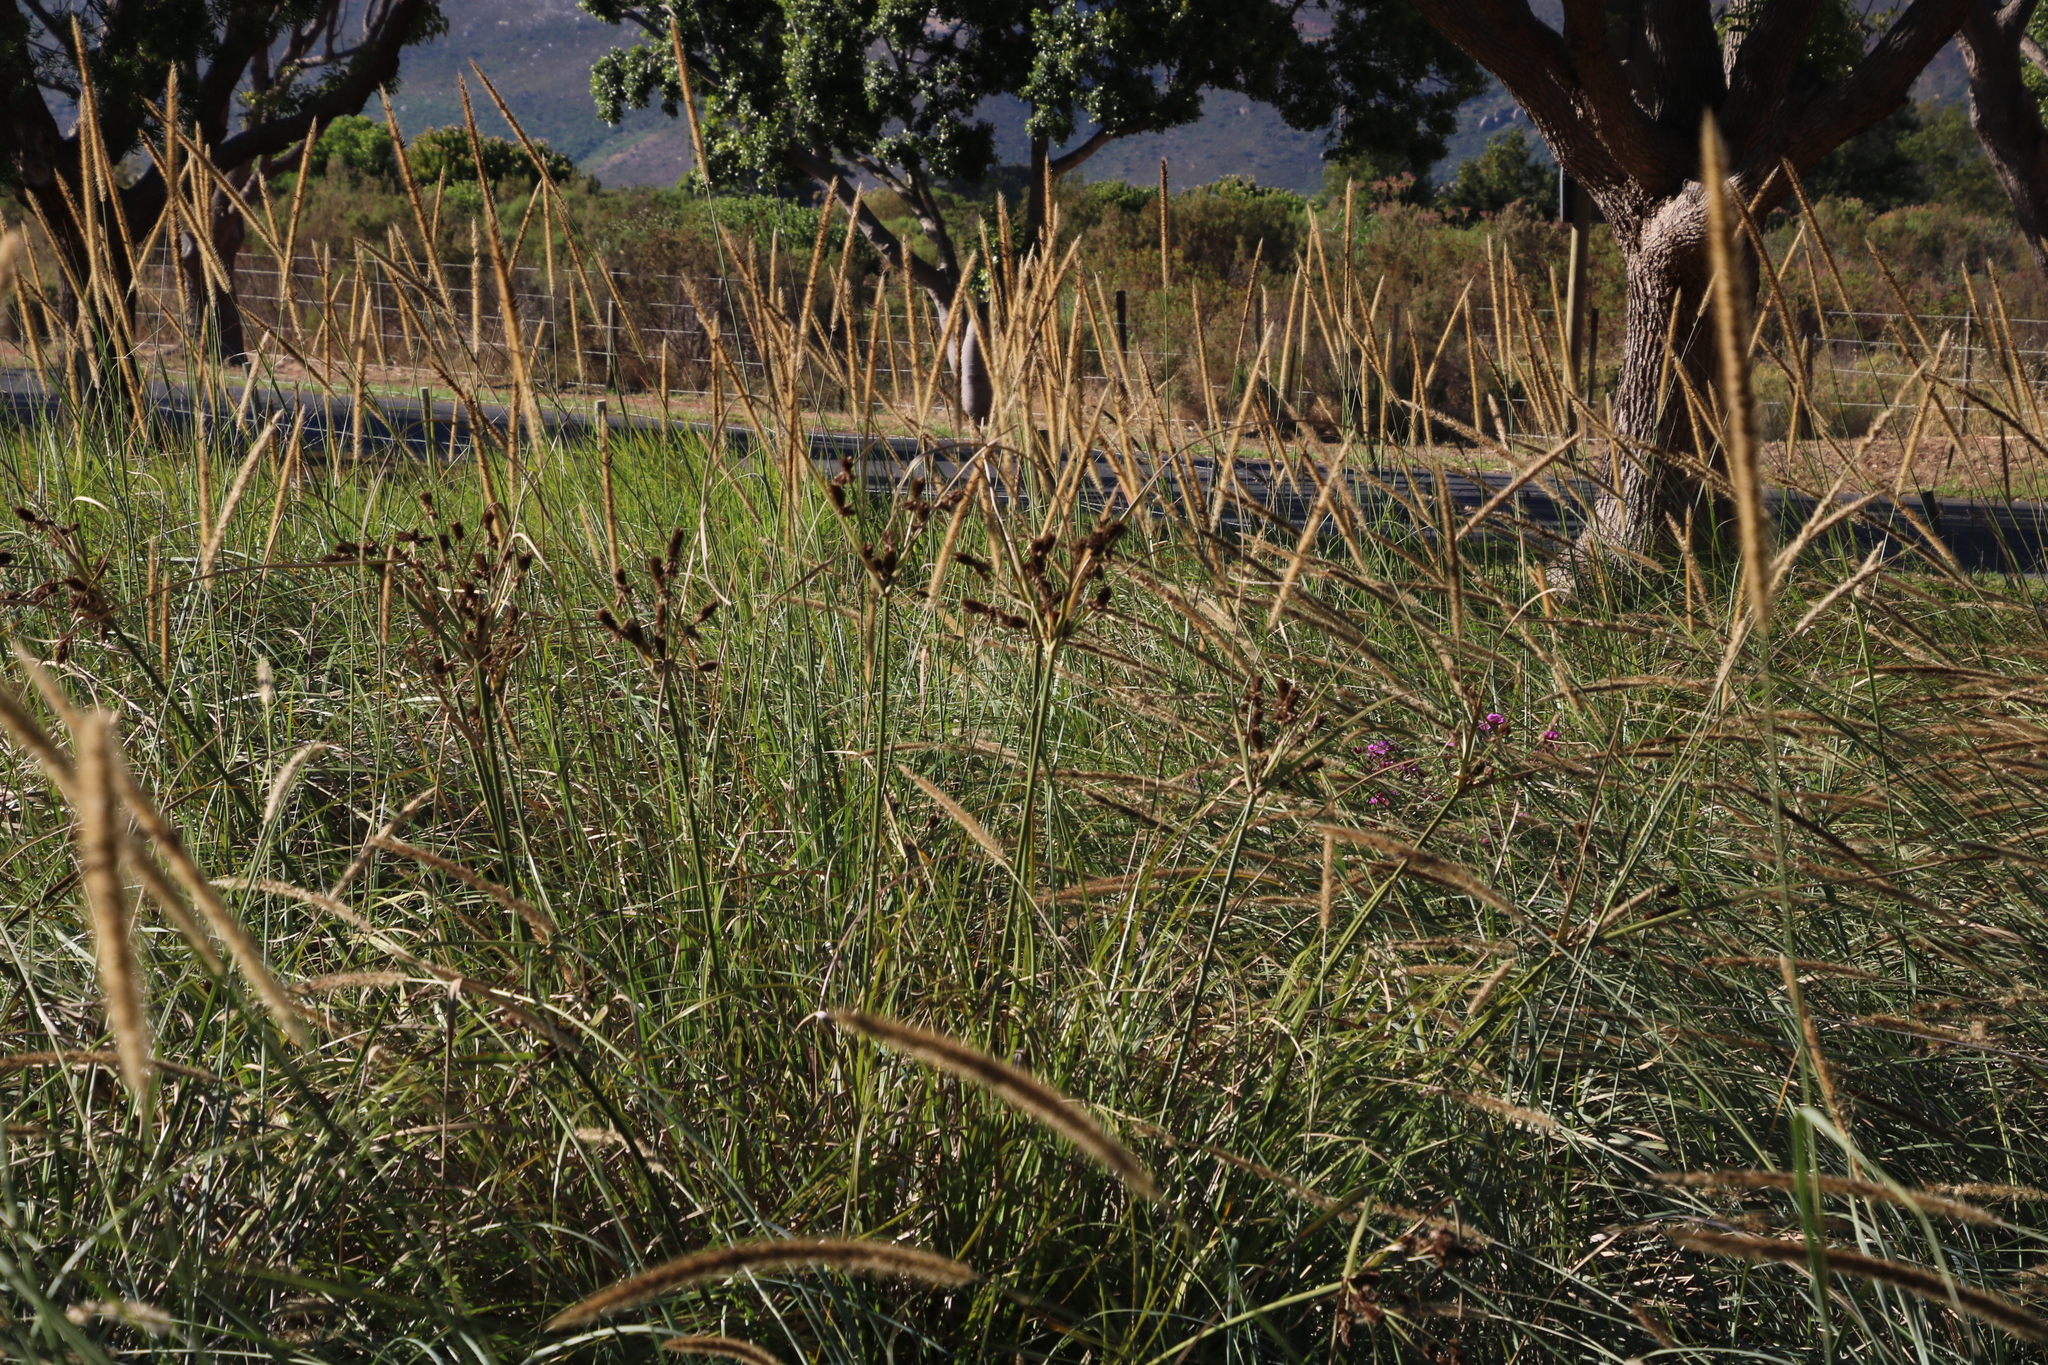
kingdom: Plantae
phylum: Tracheophyta
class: Liliopsida
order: Poales
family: Cyperaceae
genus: Cyperus
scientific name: Cyperus thunbergii
